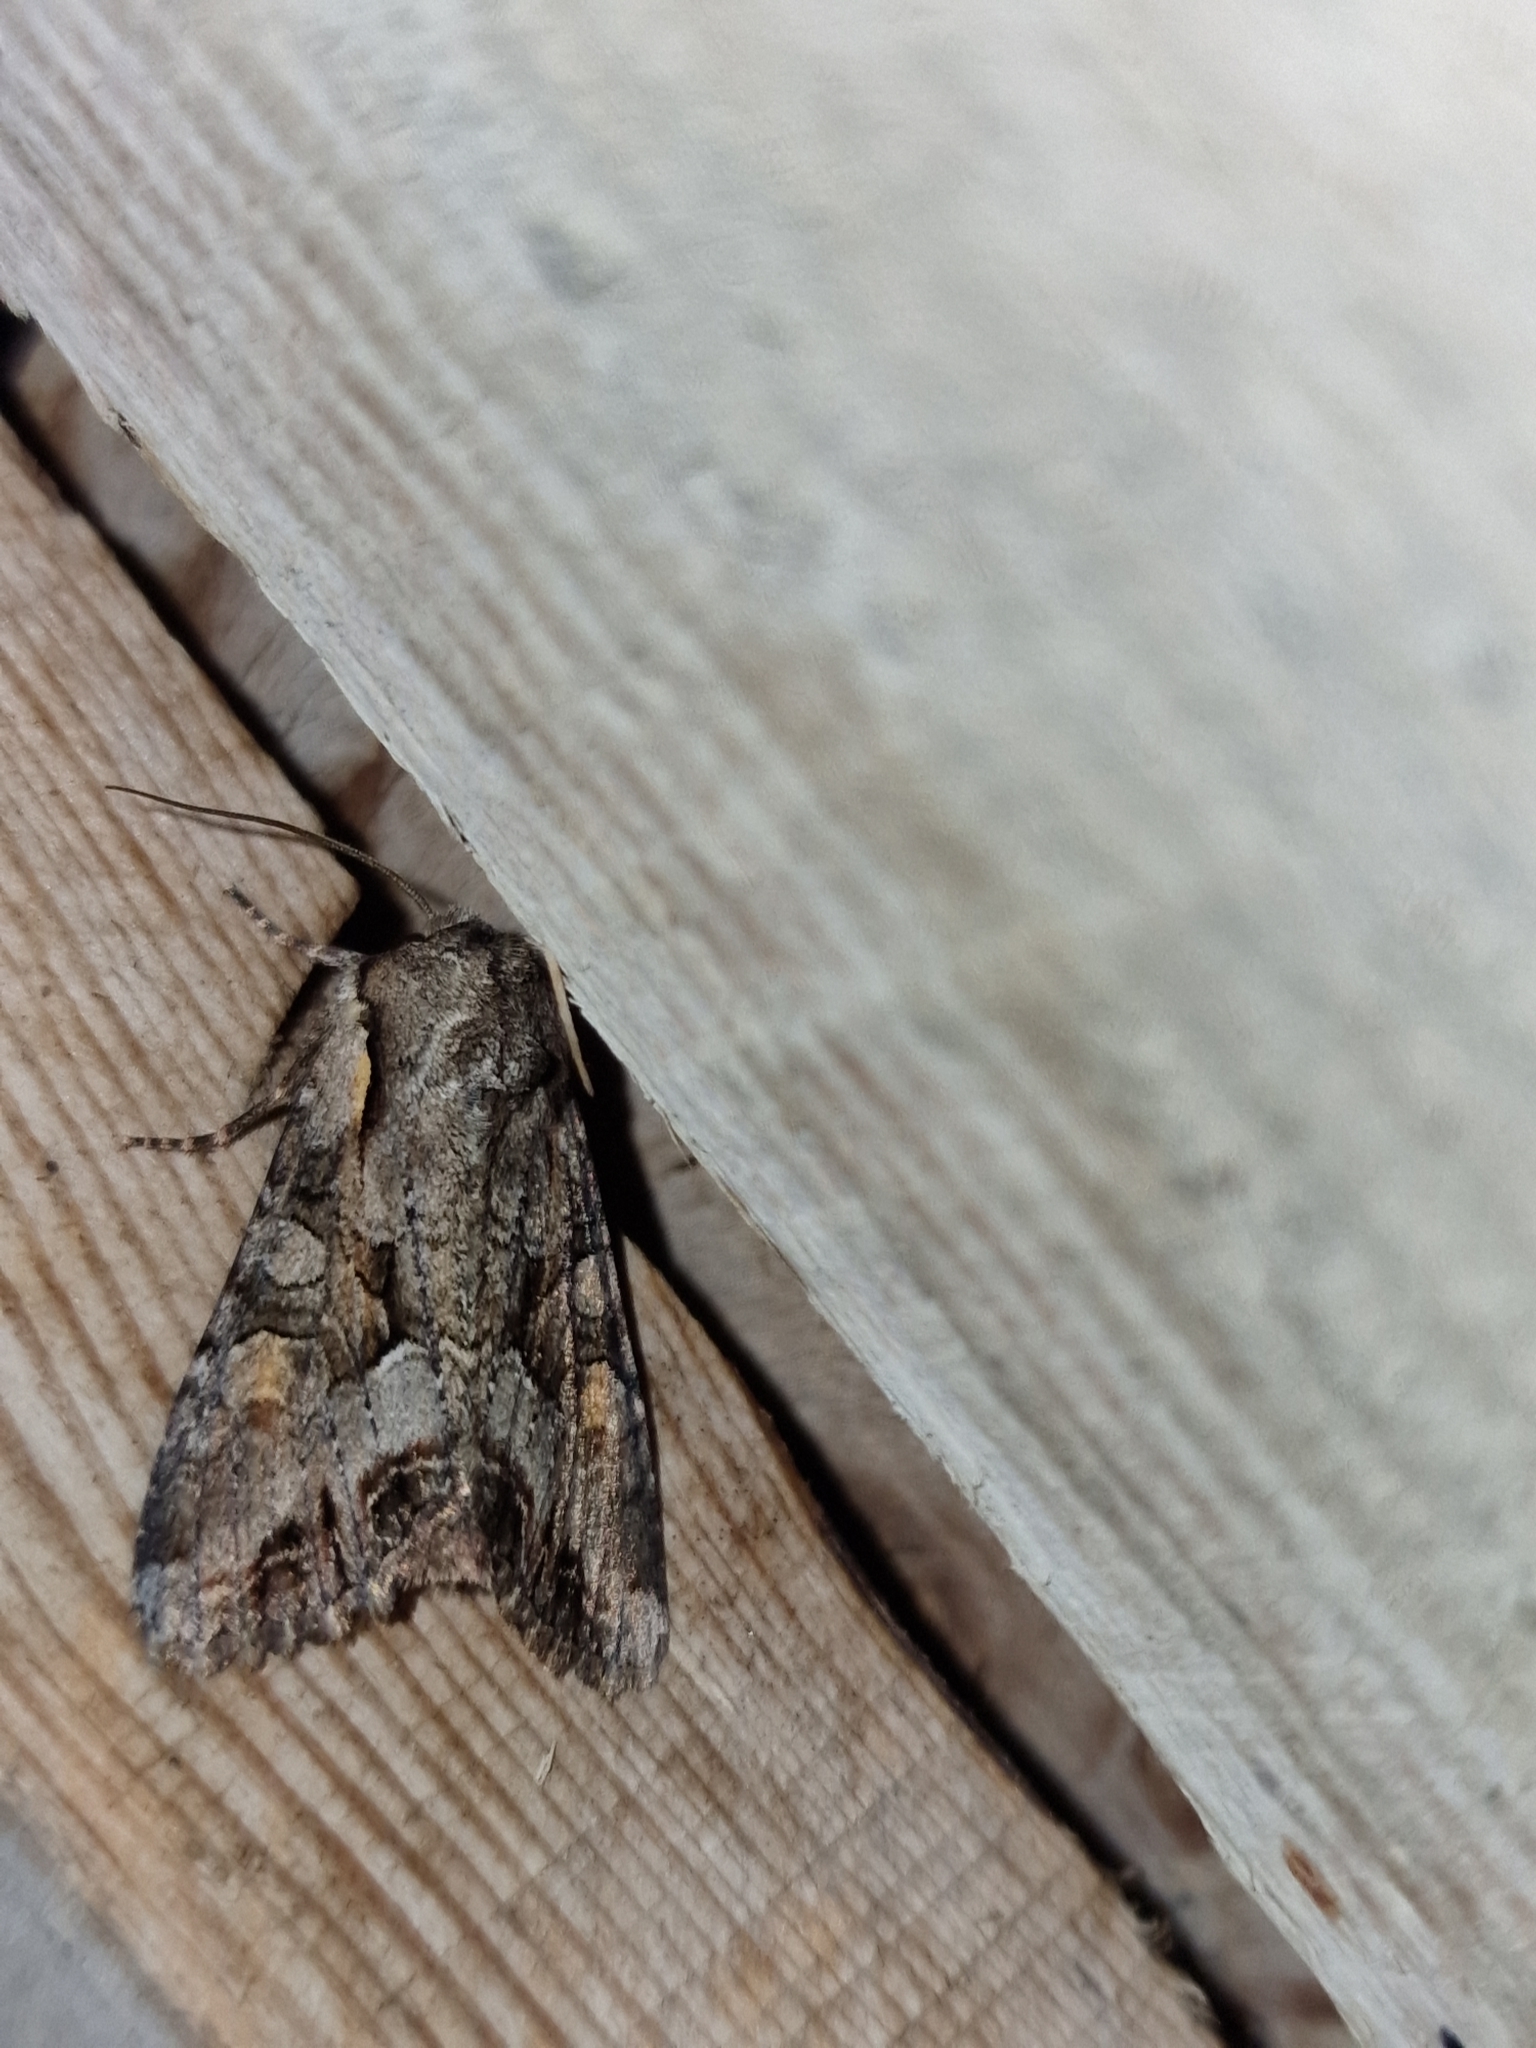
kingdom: Animalia
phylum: Arthropoda
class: Insecta
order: Lepidoptera
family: Noctuidae
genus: Lacanobia
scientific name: Lacanobia w-latinum
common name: Light brocade
